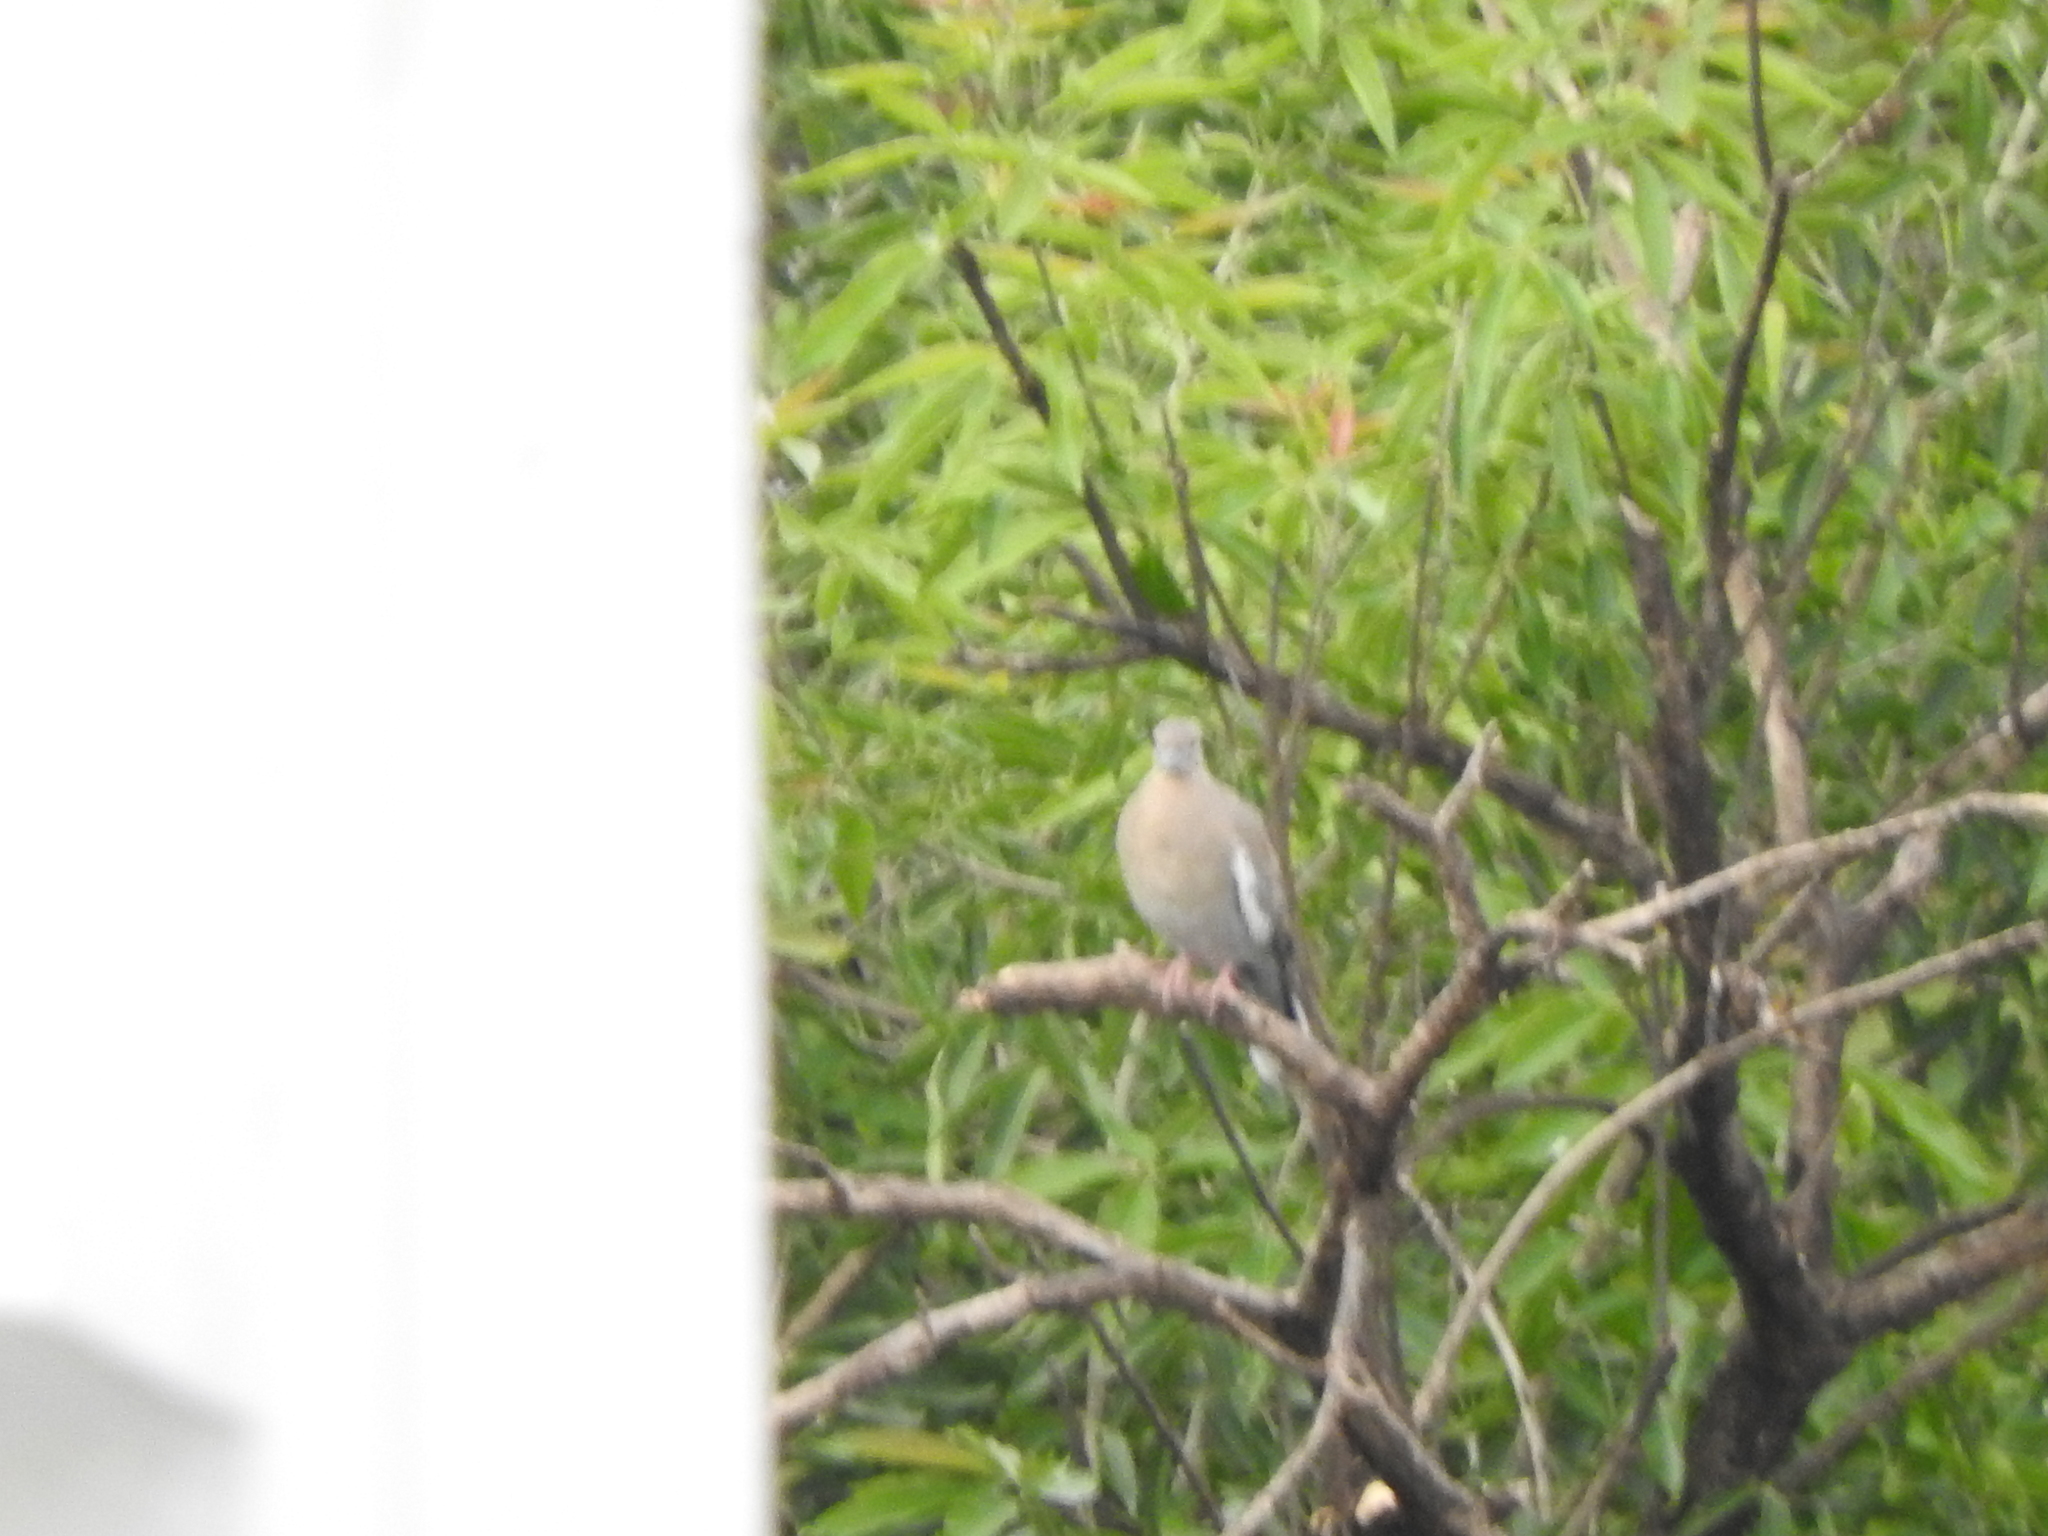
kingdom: Animalia
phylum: Chordata
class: Aves
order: Columbiformes
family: Columbidae
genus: Zenaida
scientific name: Zenaida asiatica
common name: White-winged dove
